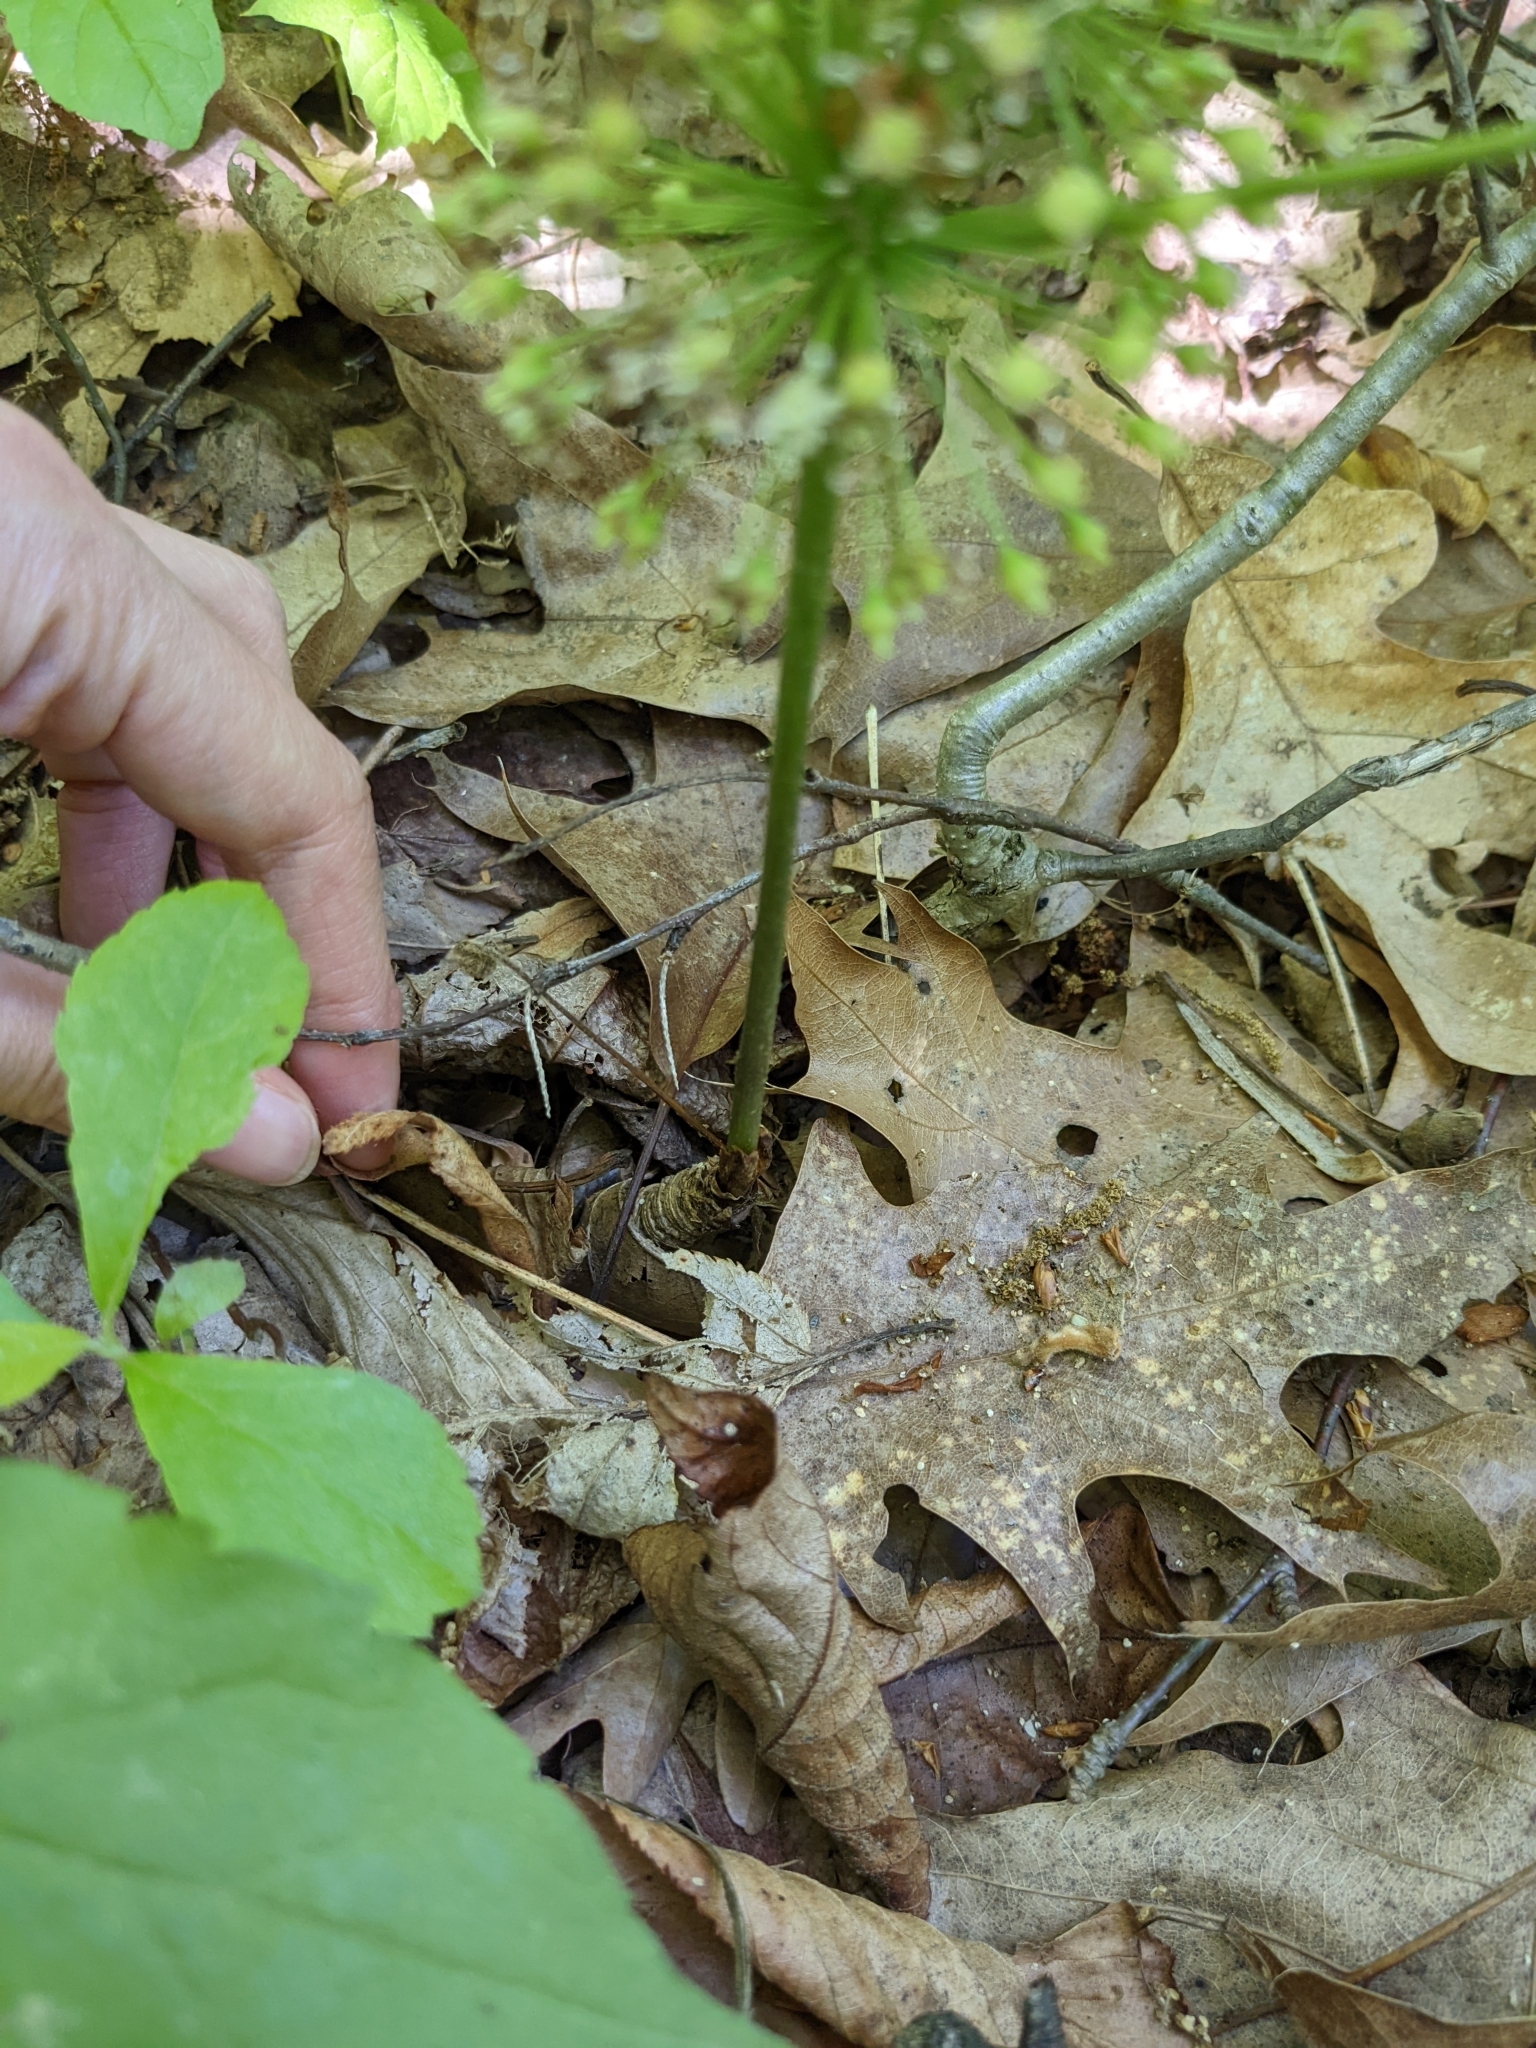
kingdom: Plantae
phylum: Tracheophyta
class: Magnoliopsida
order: Apiales
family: Araliaceae
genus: Aralia
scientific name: Aralia nudicaulis
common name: Wild sarsaparilla
